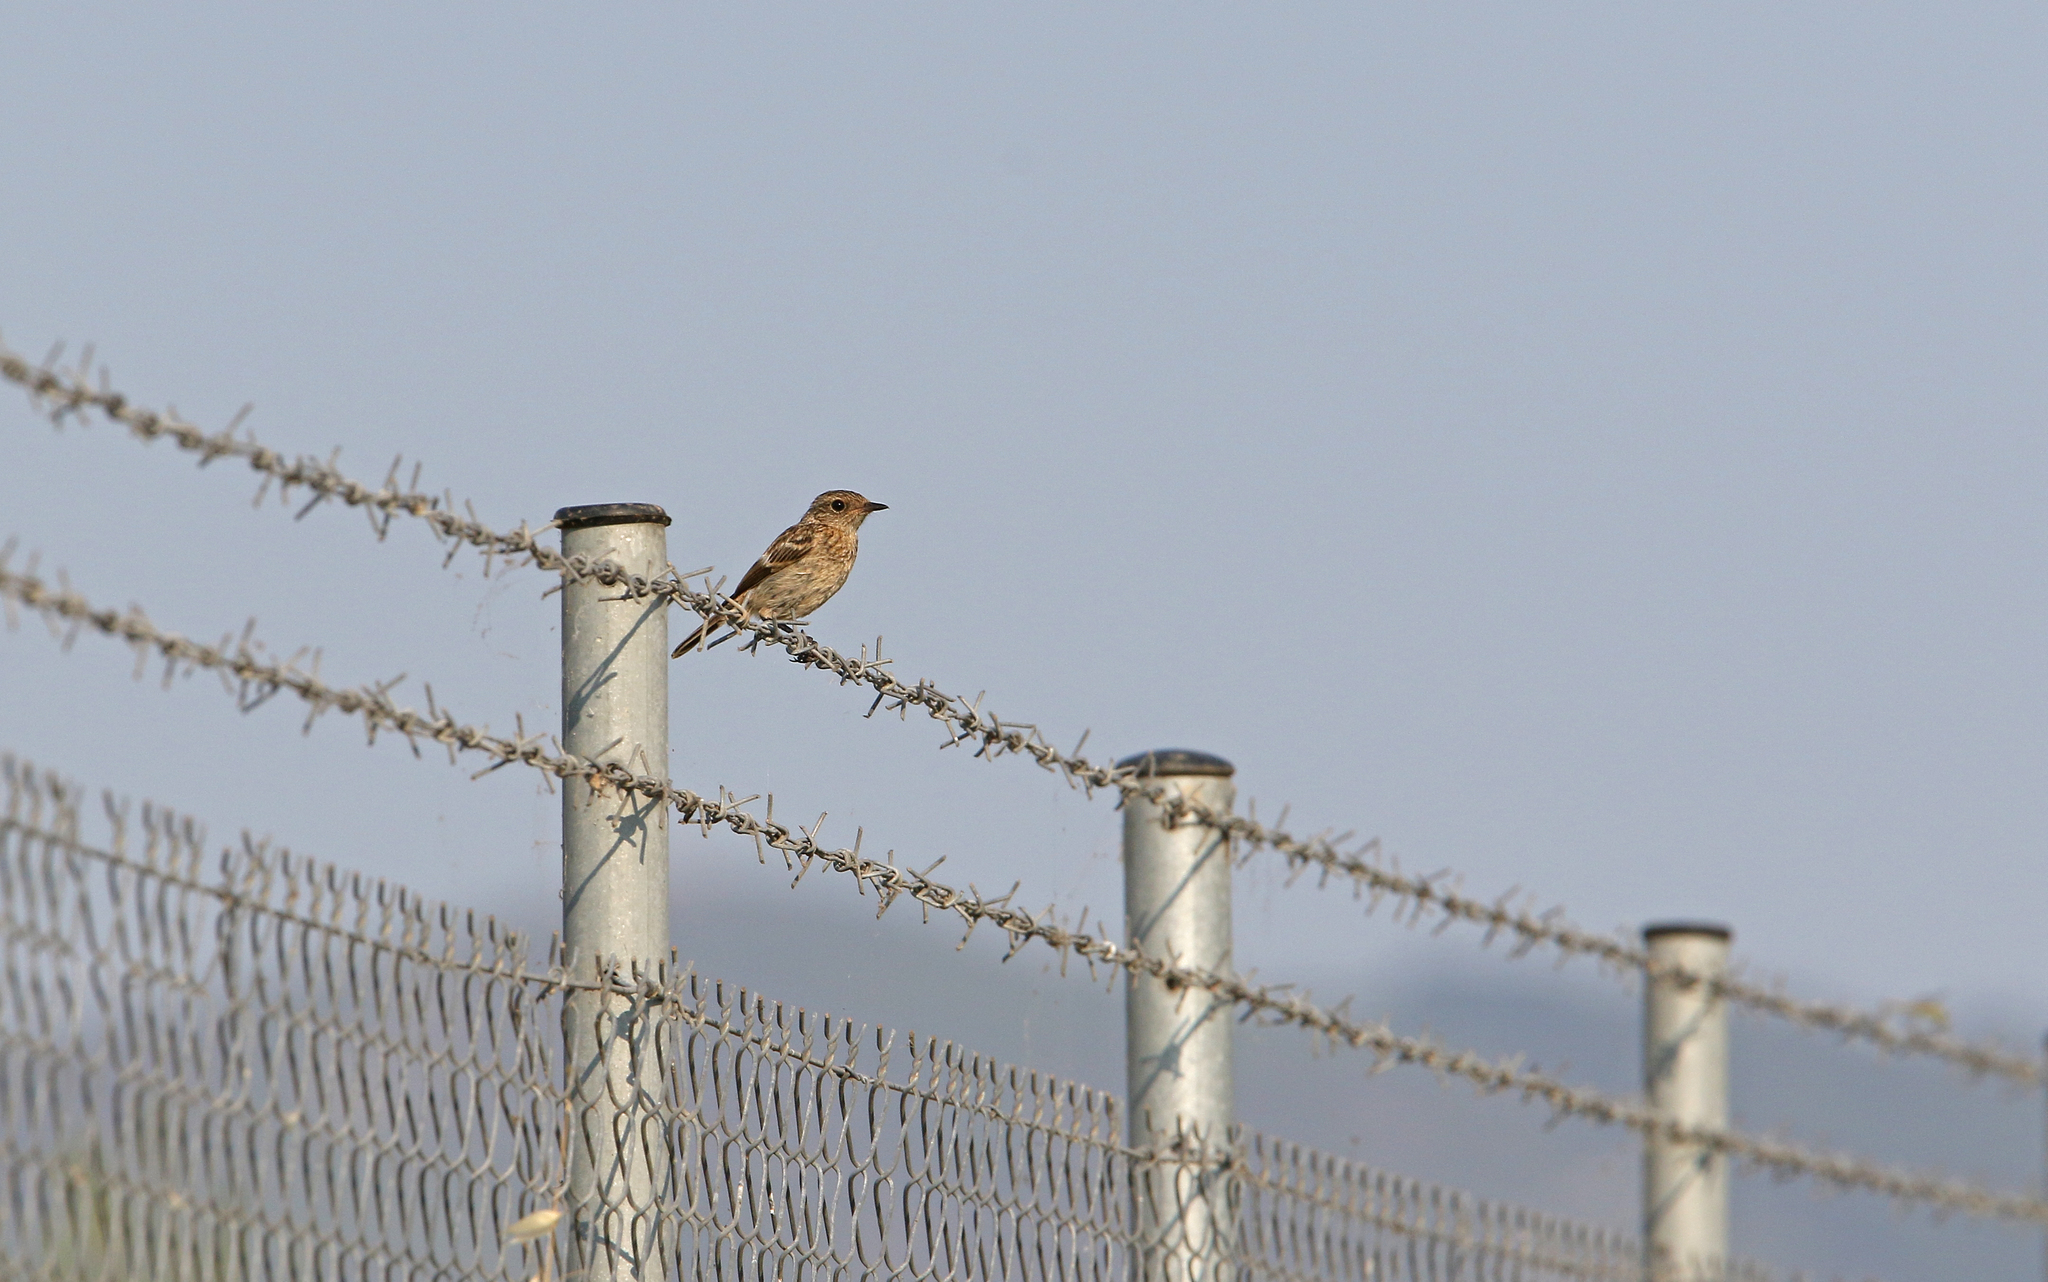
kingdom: Animalia
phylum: Chordata
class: Aves
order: Passeriformes
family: Muscicapidae
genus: Saxicola
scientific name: Saxicola rubicola
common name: European stonechat
